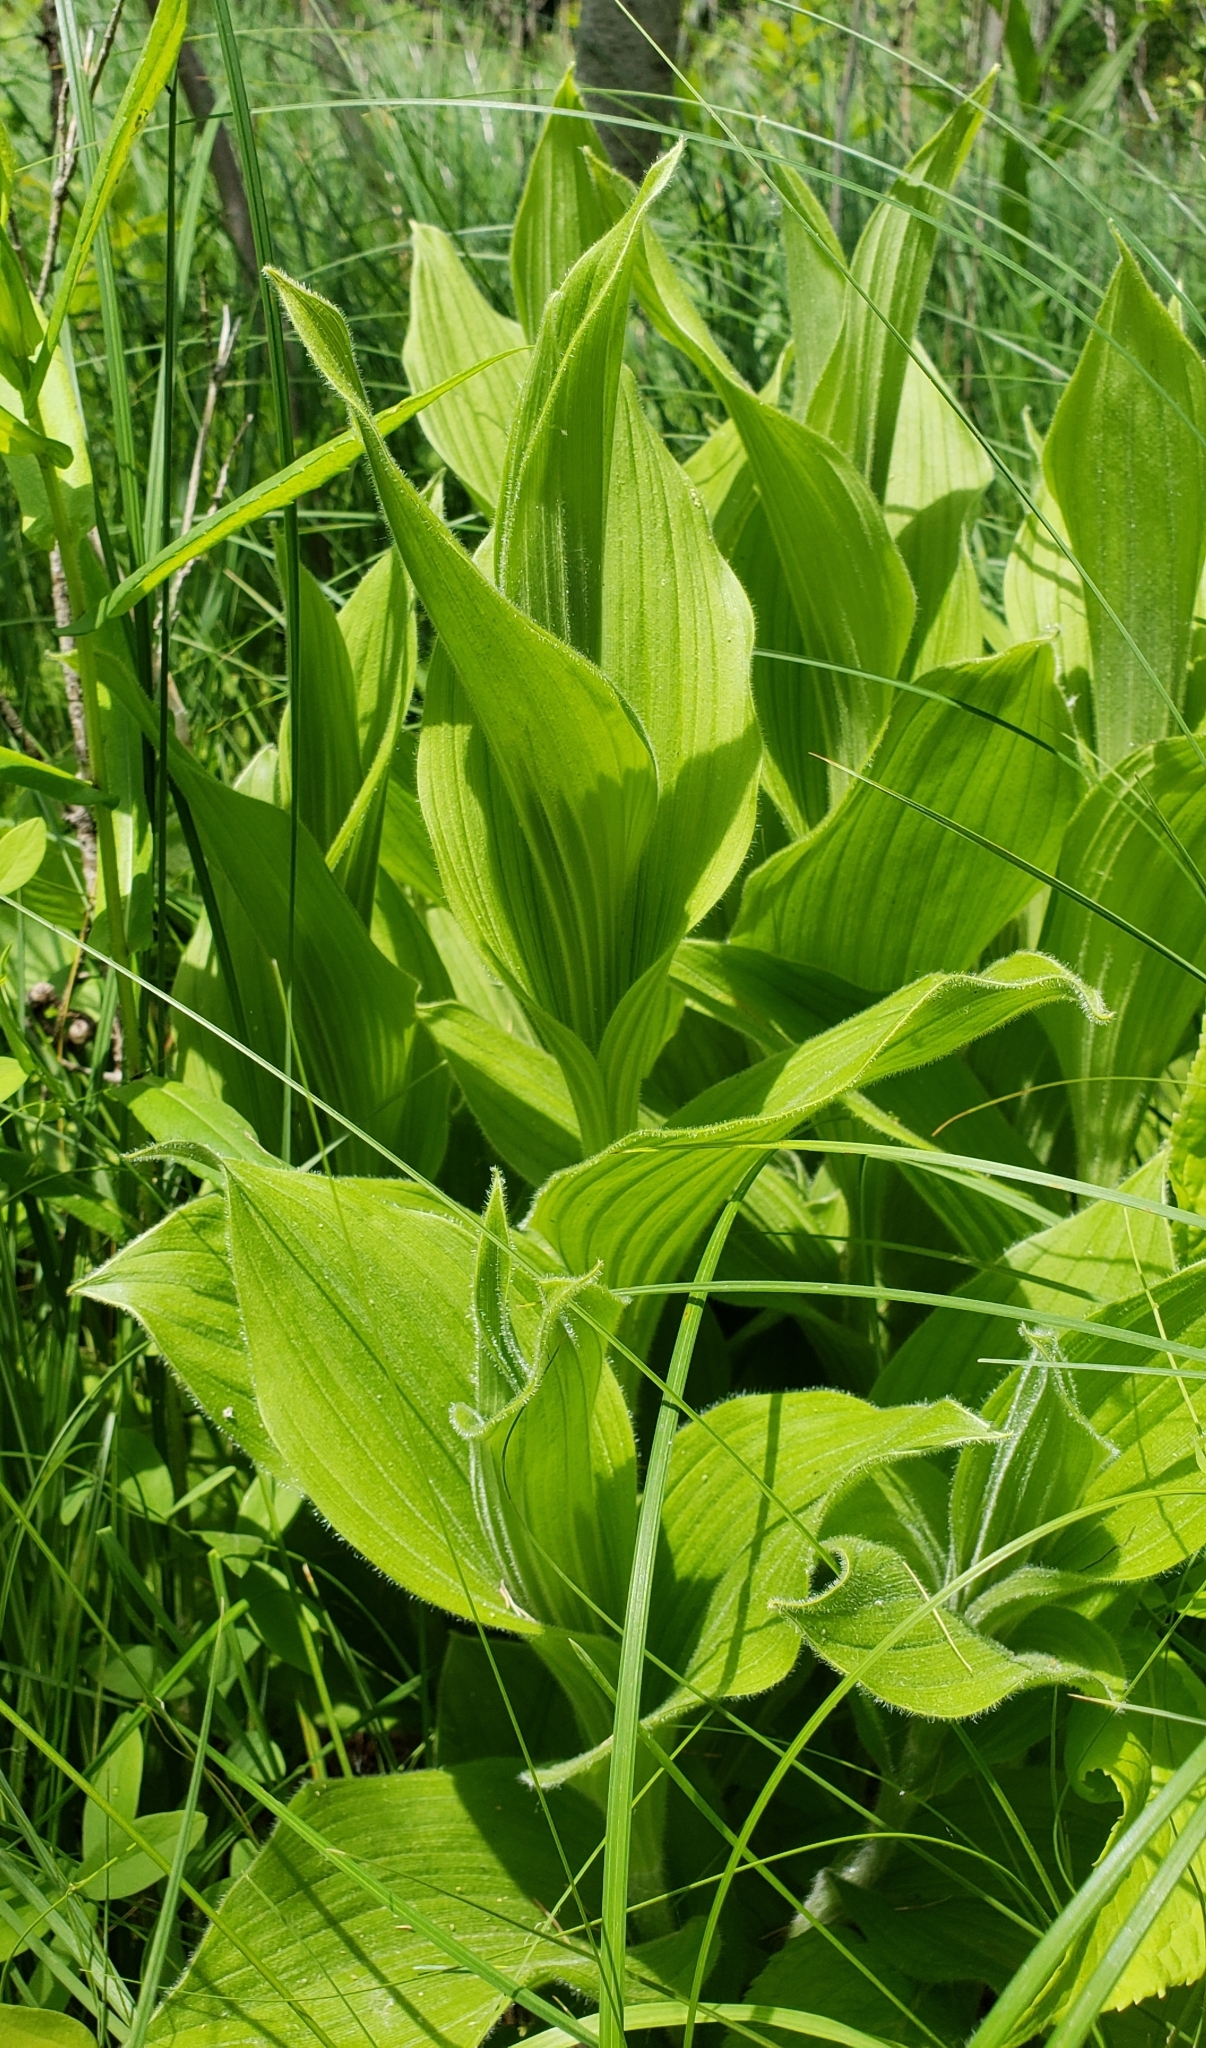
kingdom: Plantae
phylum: Tracheophyta
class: Liliopsida
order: Asparagales
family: Orchidaceae
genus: Cypripedium
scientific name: Cypripedium reginae
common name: Queen lady's-slipper
